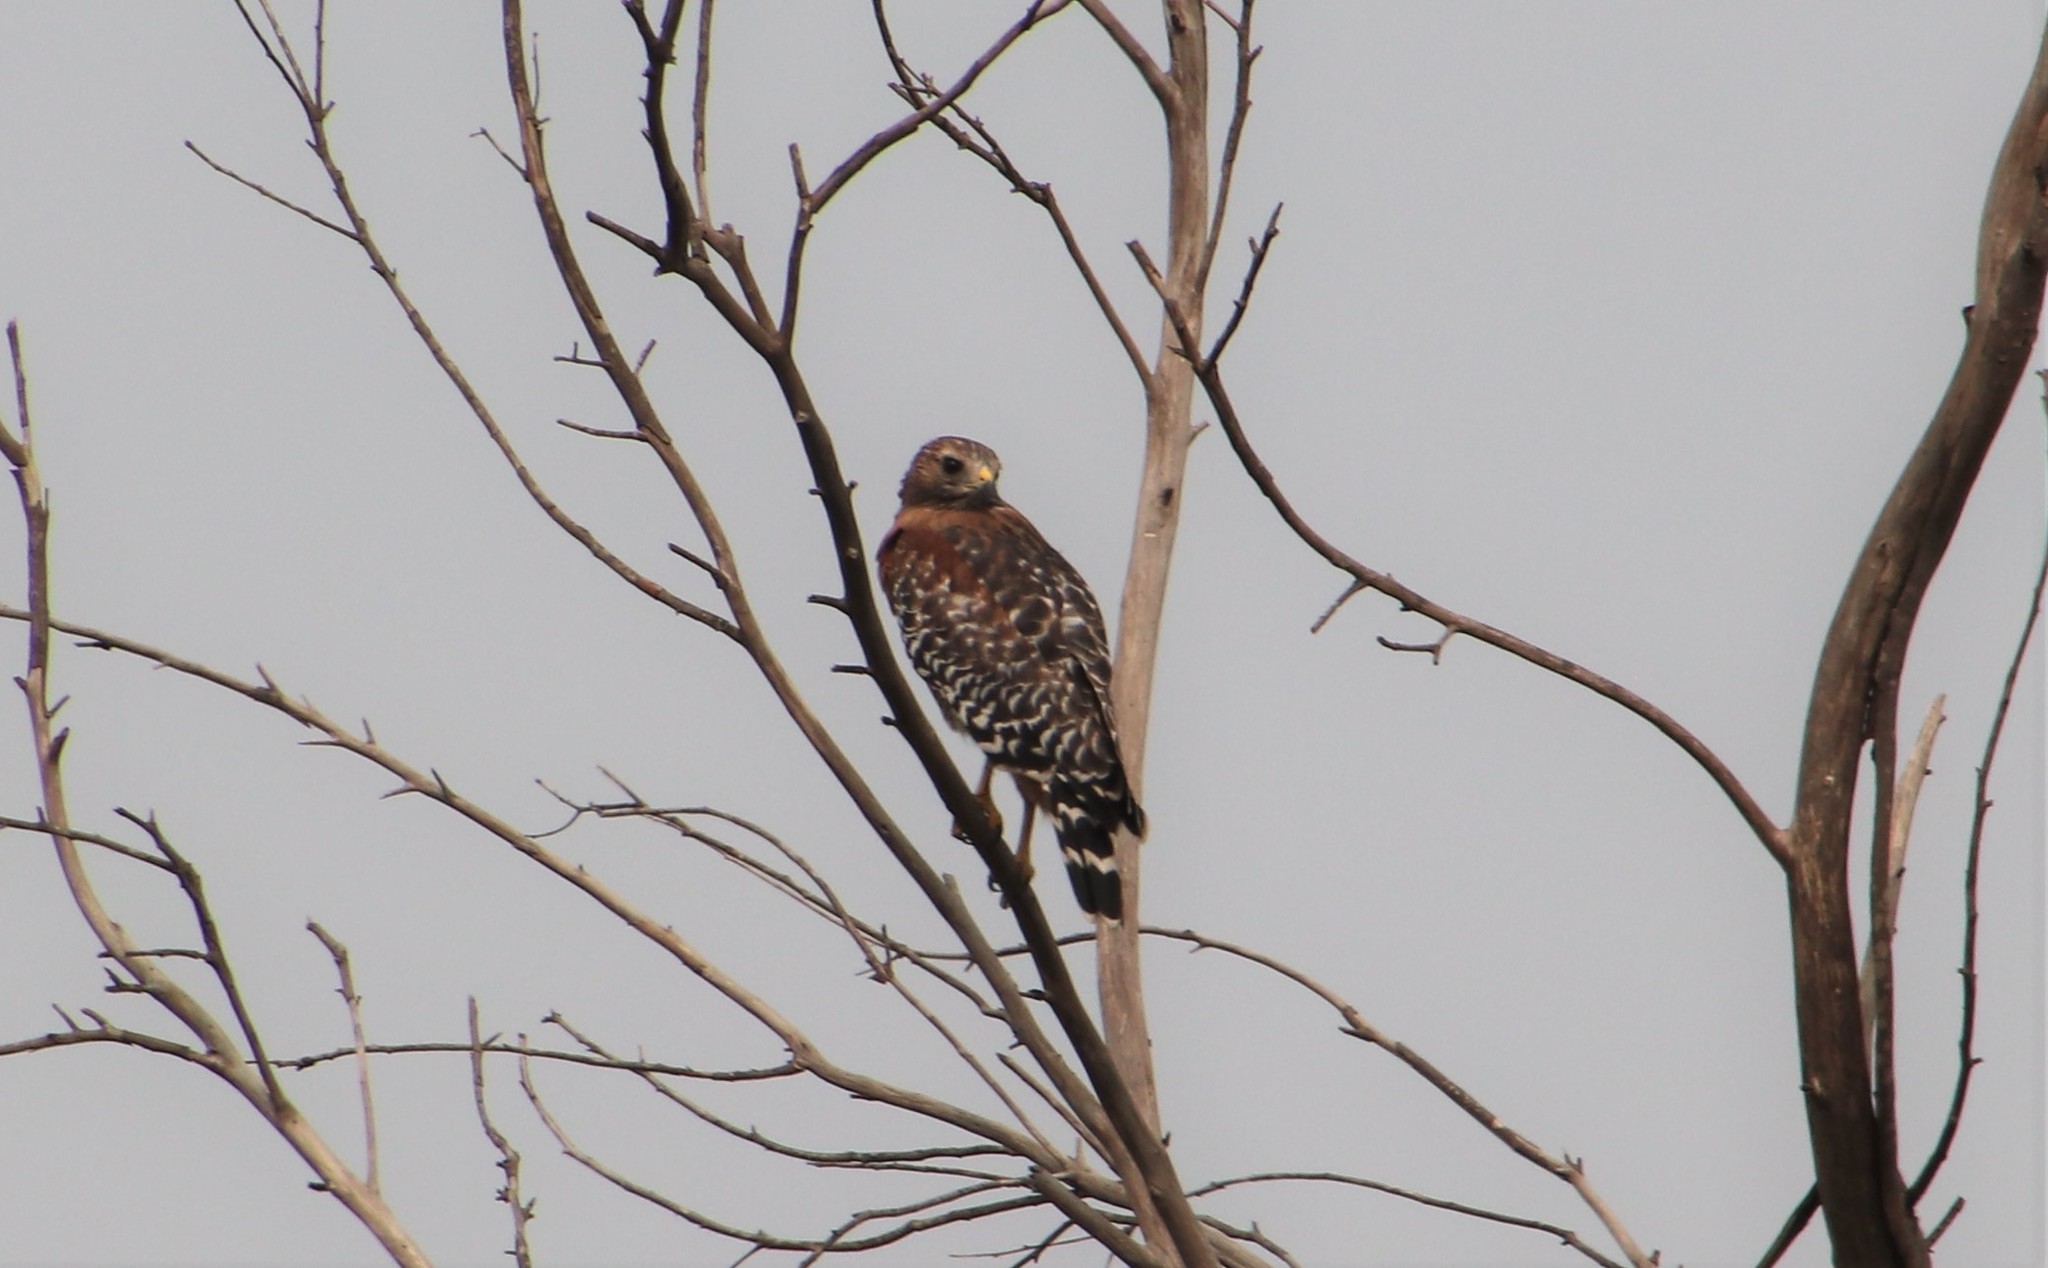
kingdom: Animalia
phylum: Chordata
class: Aves
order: Accipitriformes
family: Accipitridae
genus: Buteo
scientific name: Buteo lineatus
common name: Red-shouldered hawk
